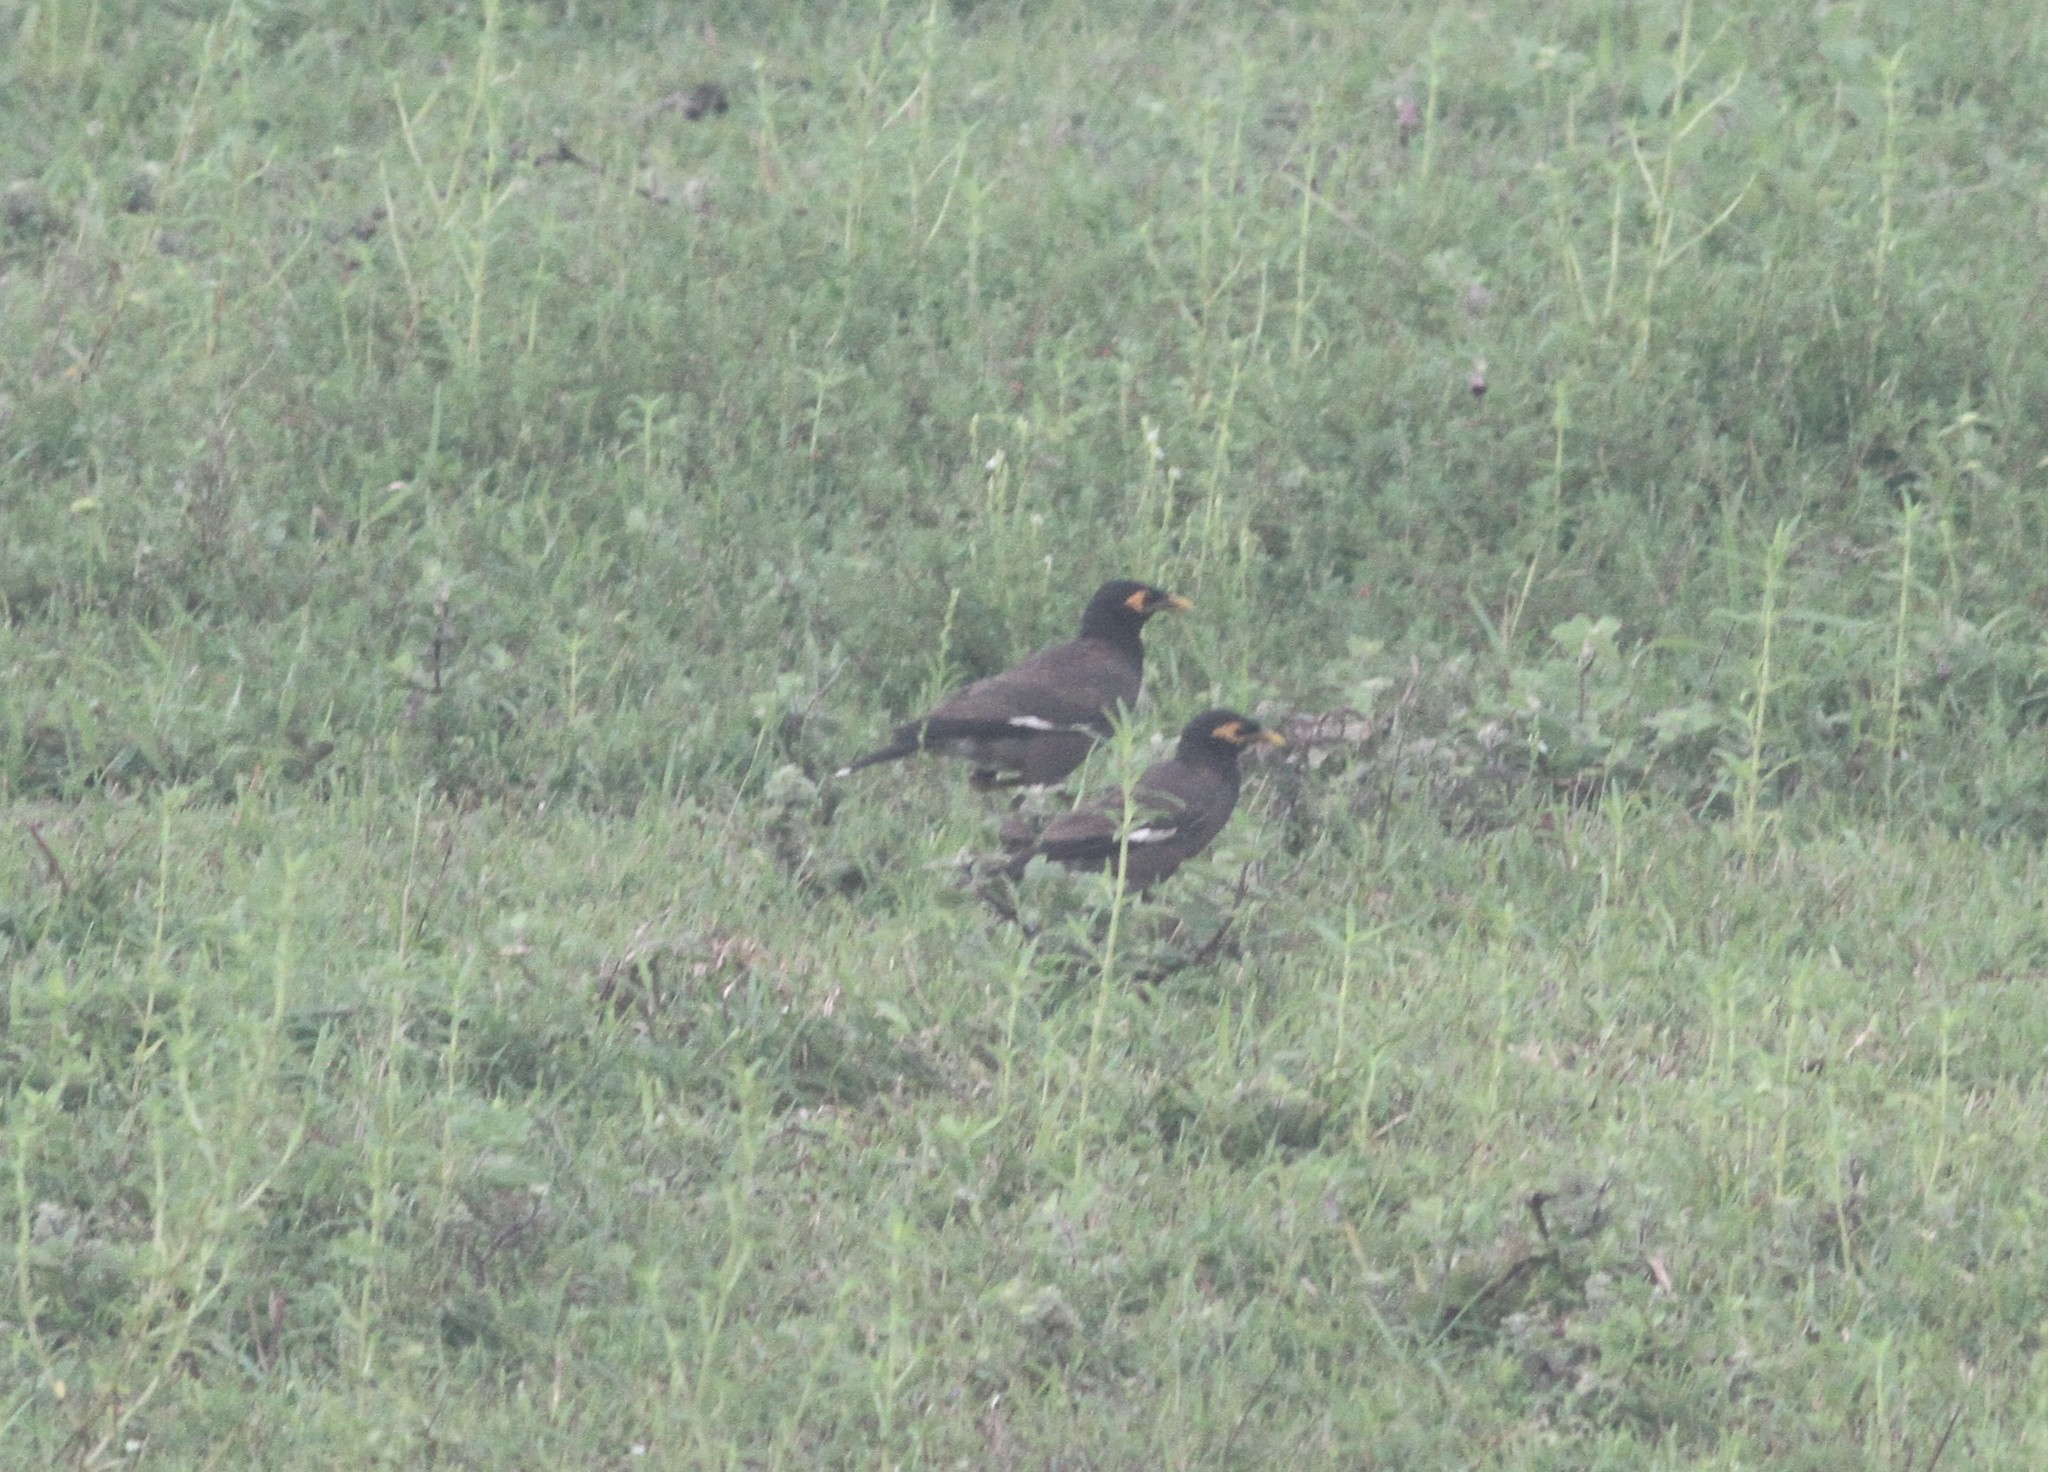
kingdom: Animalia
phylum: Chordata
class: Aves
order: Passeriformes
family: Sturnidae
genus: Acridotheres
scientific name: Acridotheres tristis
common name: Common myna
